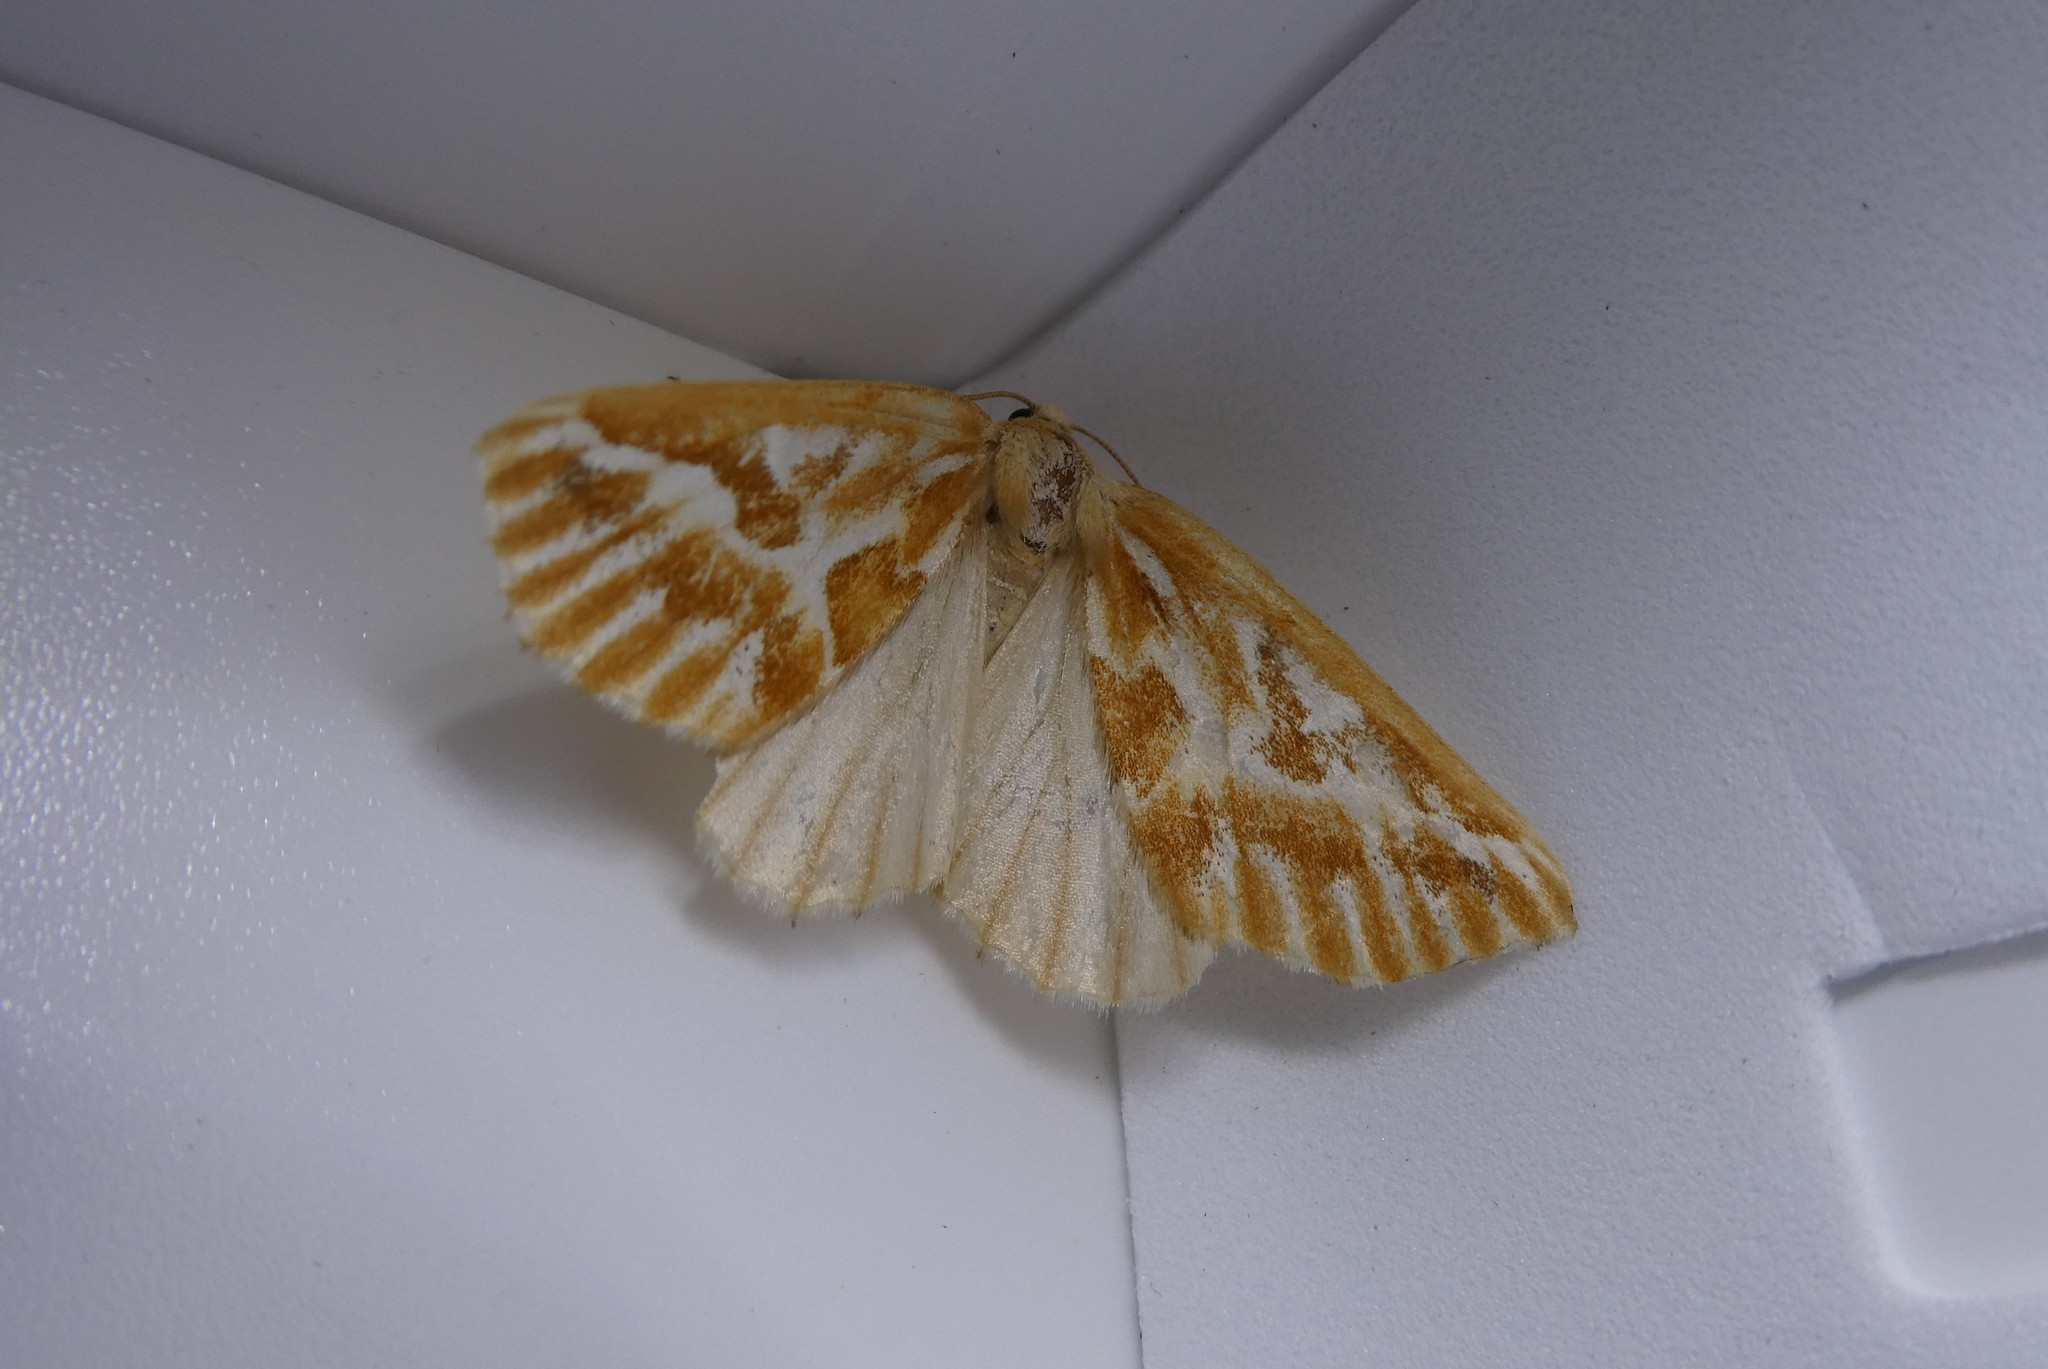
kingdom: Animalia
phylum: Arthropoda
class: Insecta
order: Lepidoptera
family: Geometridae
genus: Caripeta
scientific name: Caripeta piniata
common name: Northern pine looper moth
